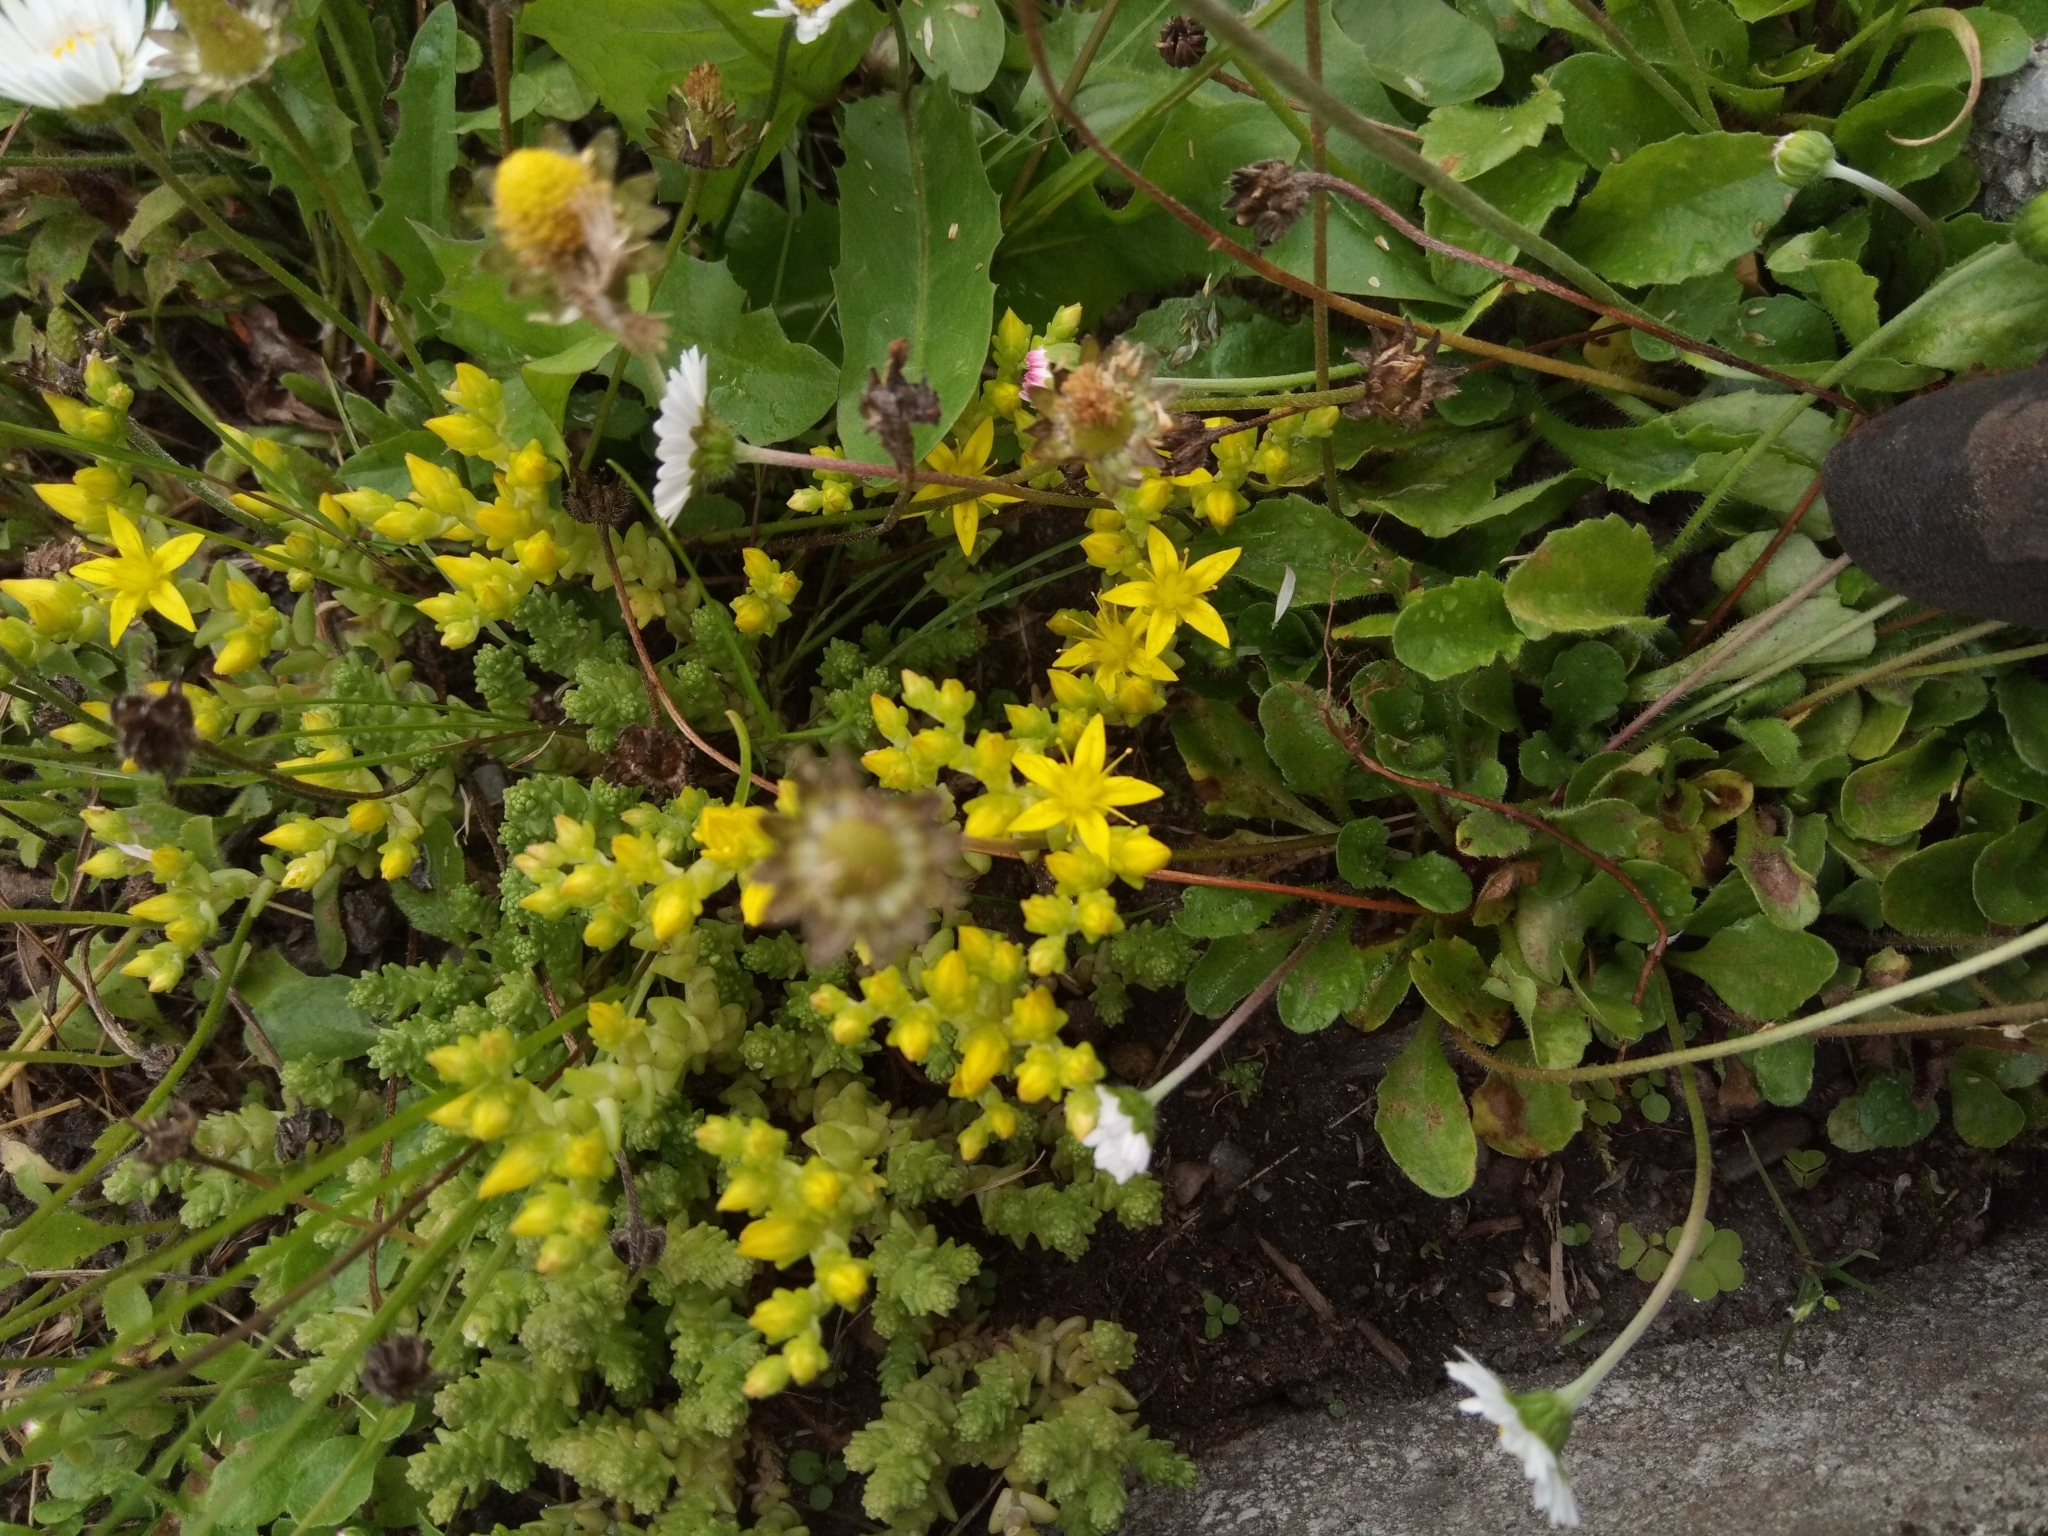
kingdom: Plantae
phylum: Tracheophyta
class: Magnoliopsida
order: Saxifragales
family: Crassulaceae
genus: Sedum
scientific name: Sedum acre
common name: Biting stonecrop
